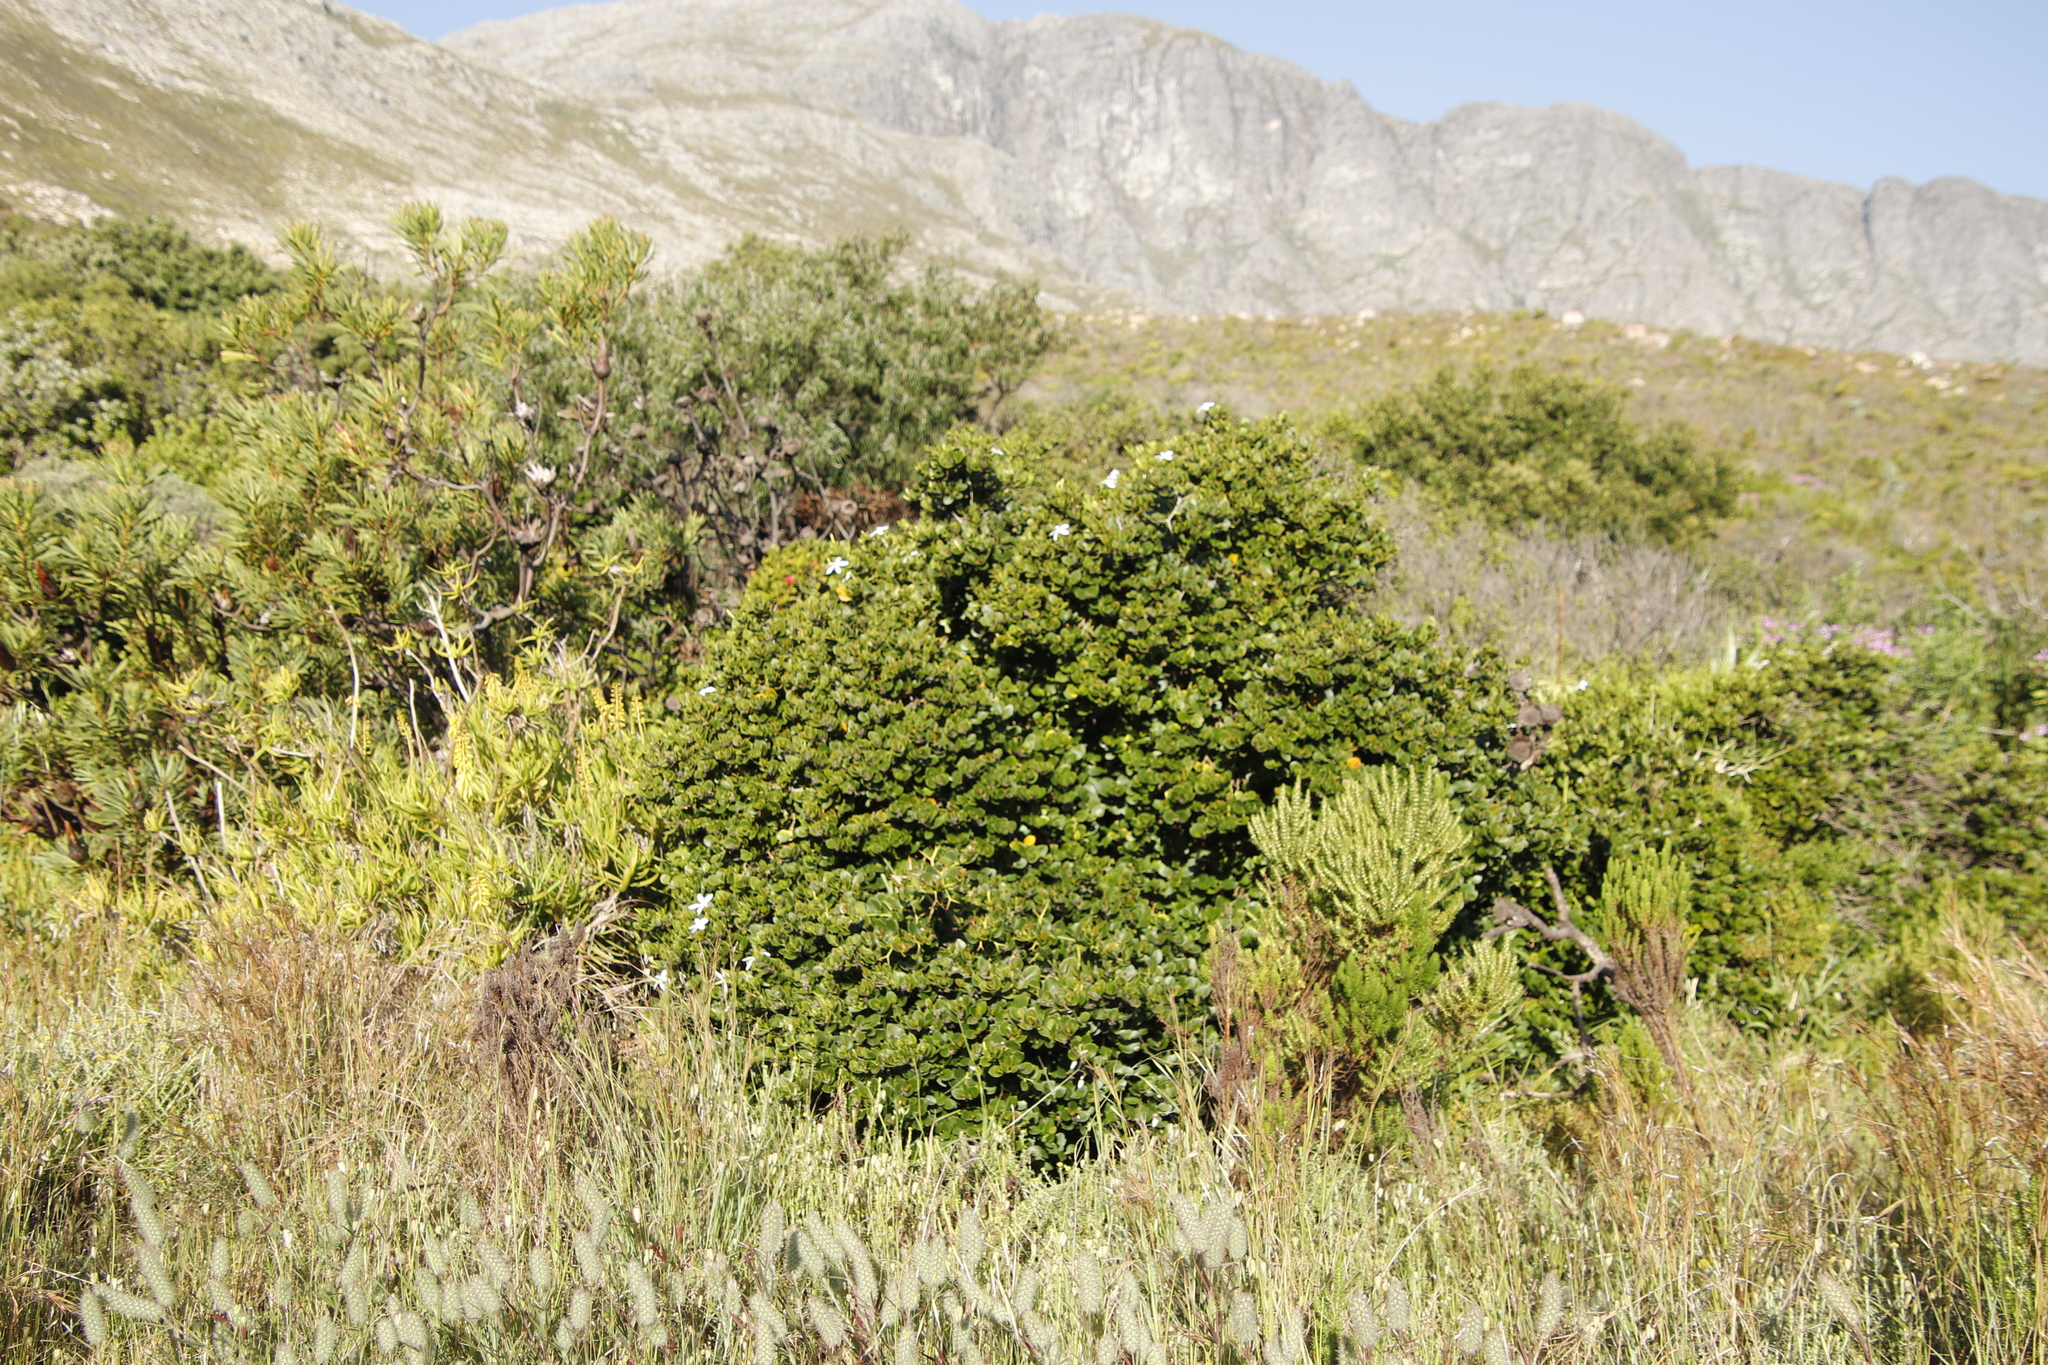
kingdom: Plantae
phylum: Tracheophyta
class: Magnoliopsida
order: Gentianales
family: Apocynaceae
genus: Carissa
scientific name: Carissa macrocarpa
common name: Natal plum
